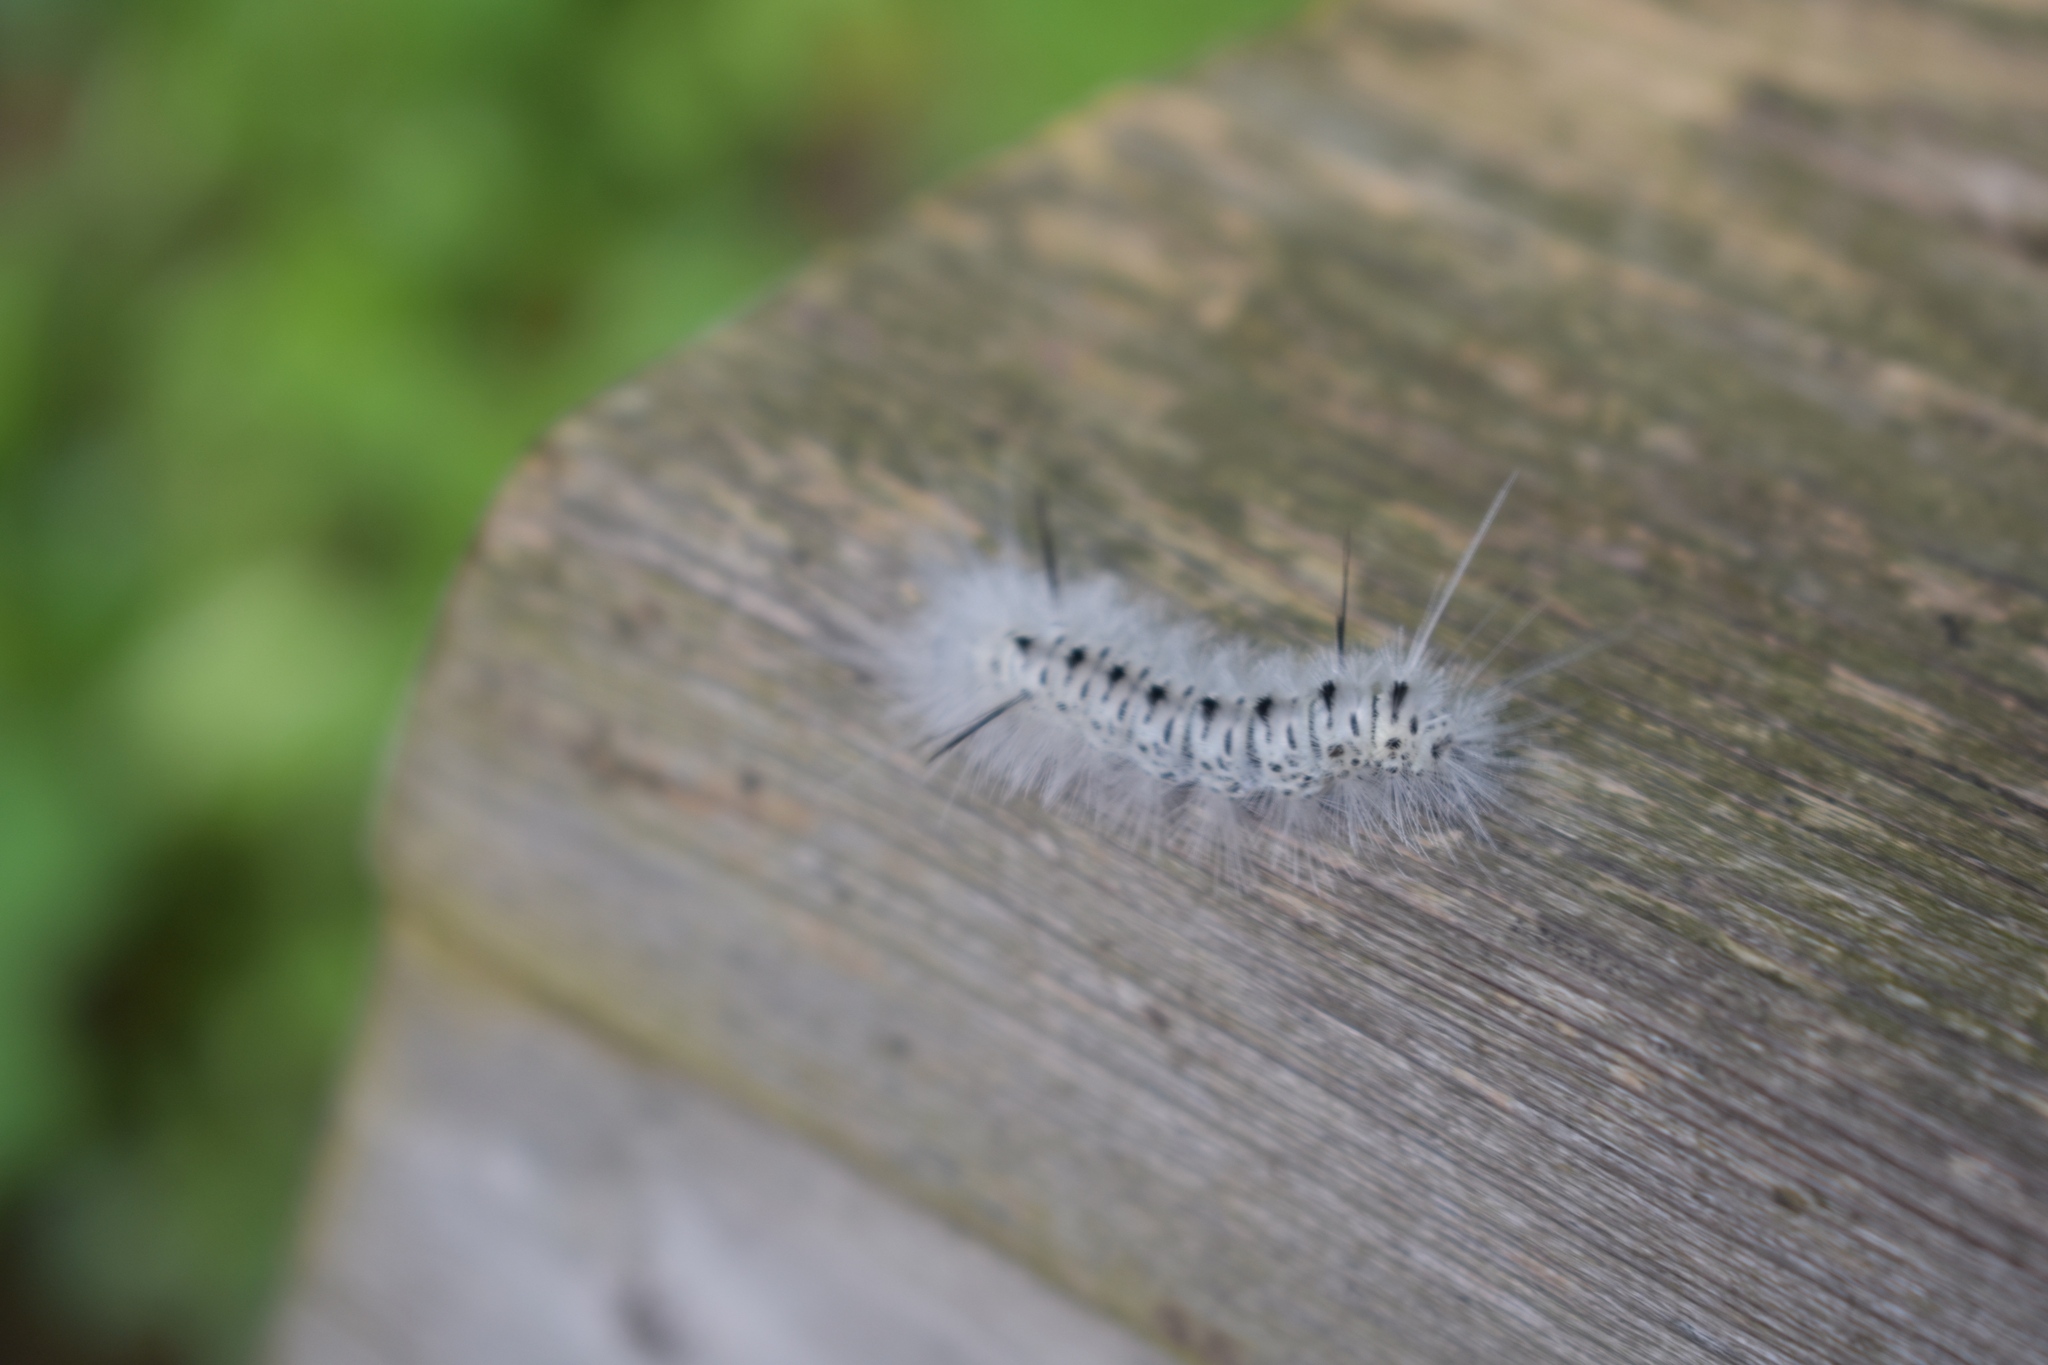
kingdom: Animalia
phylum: Arthropoda
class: Insecta
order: Lepidoptera
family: Erebidae
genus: Lophocampa
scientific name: Lophocampa caryae
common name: Hickory tussock moth
